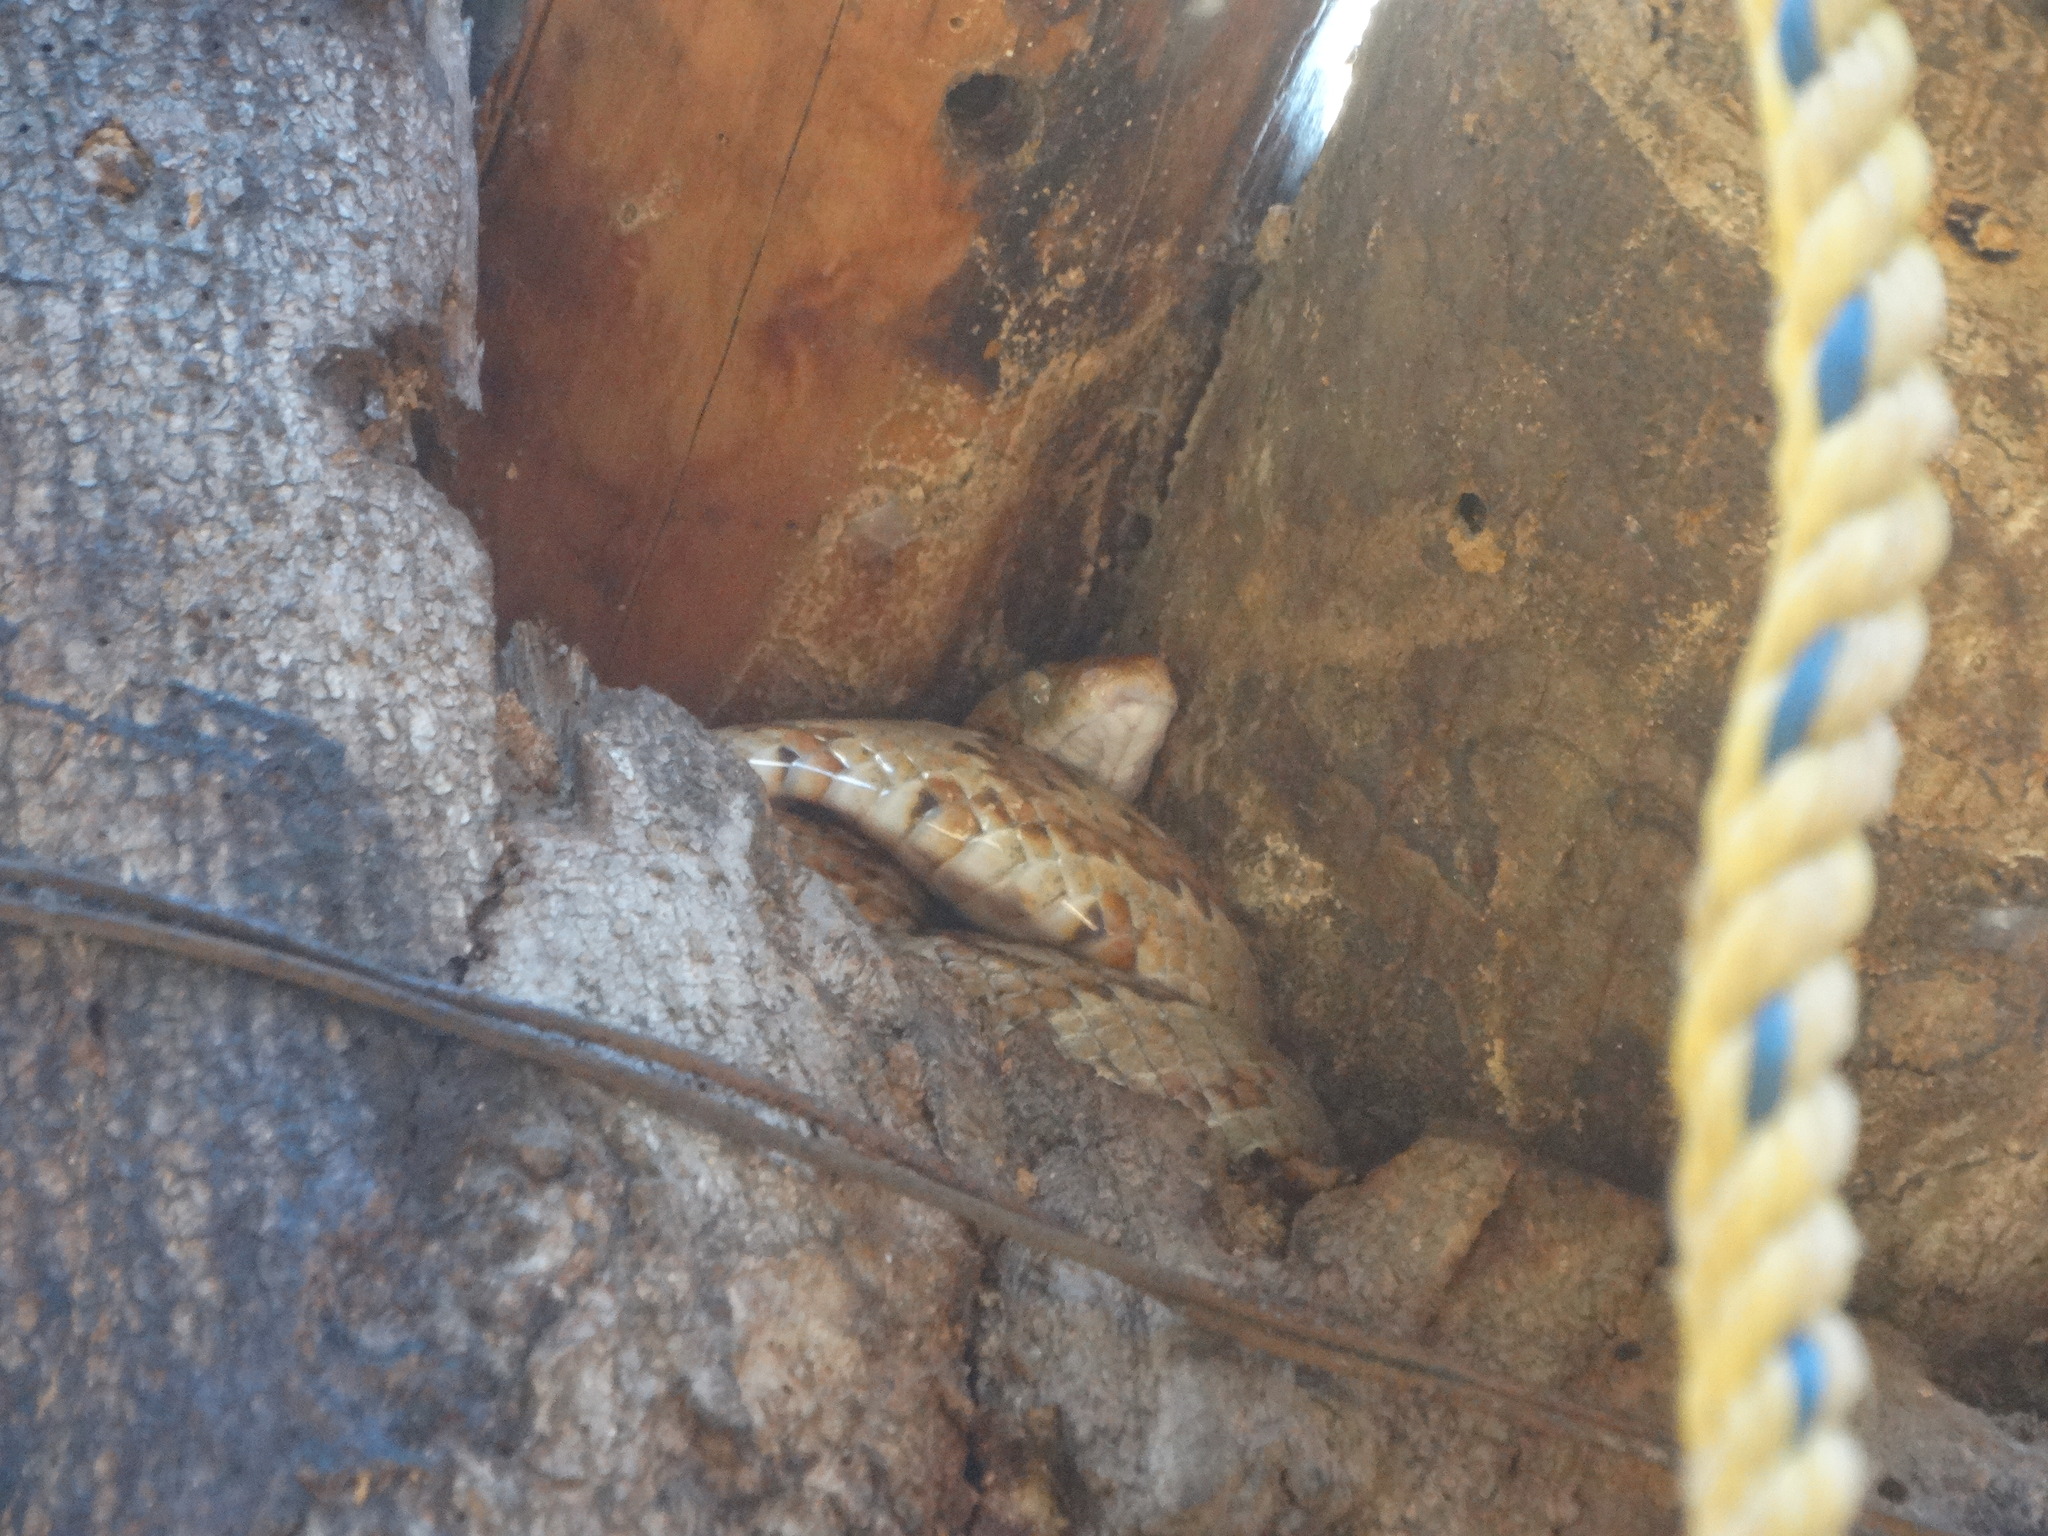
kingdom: Animalia
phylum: Chordata
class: Squamata
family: Colubridae
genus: Trimorphodon
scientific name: Trimorphodon paucimaculatus
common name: Sinaloan lyresnake
